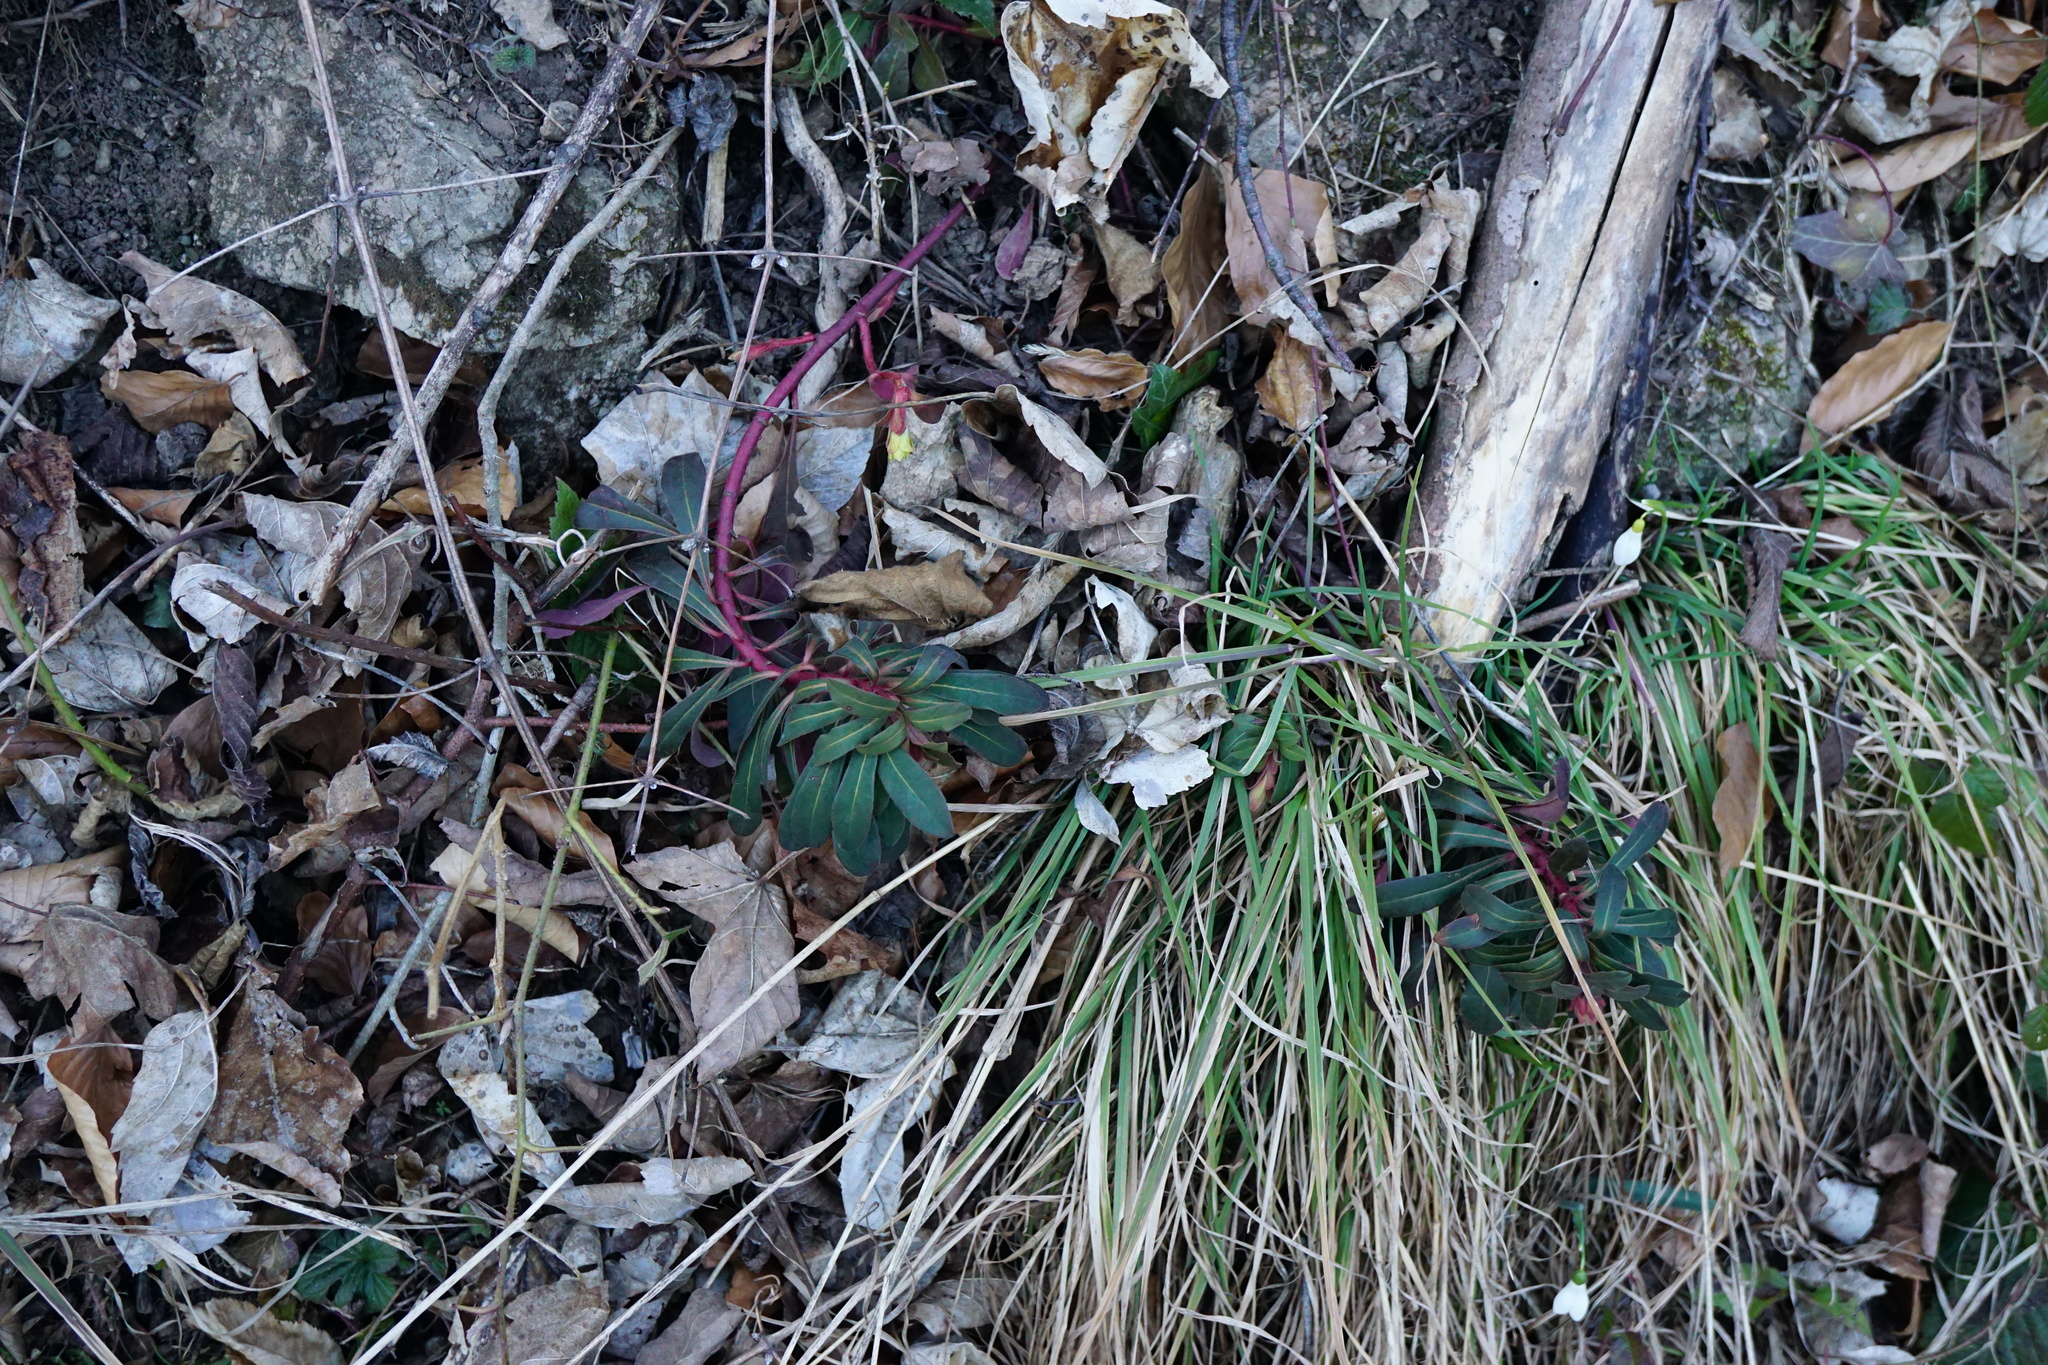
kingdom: Plantae
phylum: Tracheophyta
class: Magnoliopsida
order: Malpighiales
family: Euphorbiaceae
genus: Euphorbia
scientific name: Euphorbia amygdaloides
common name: Wood spurge
